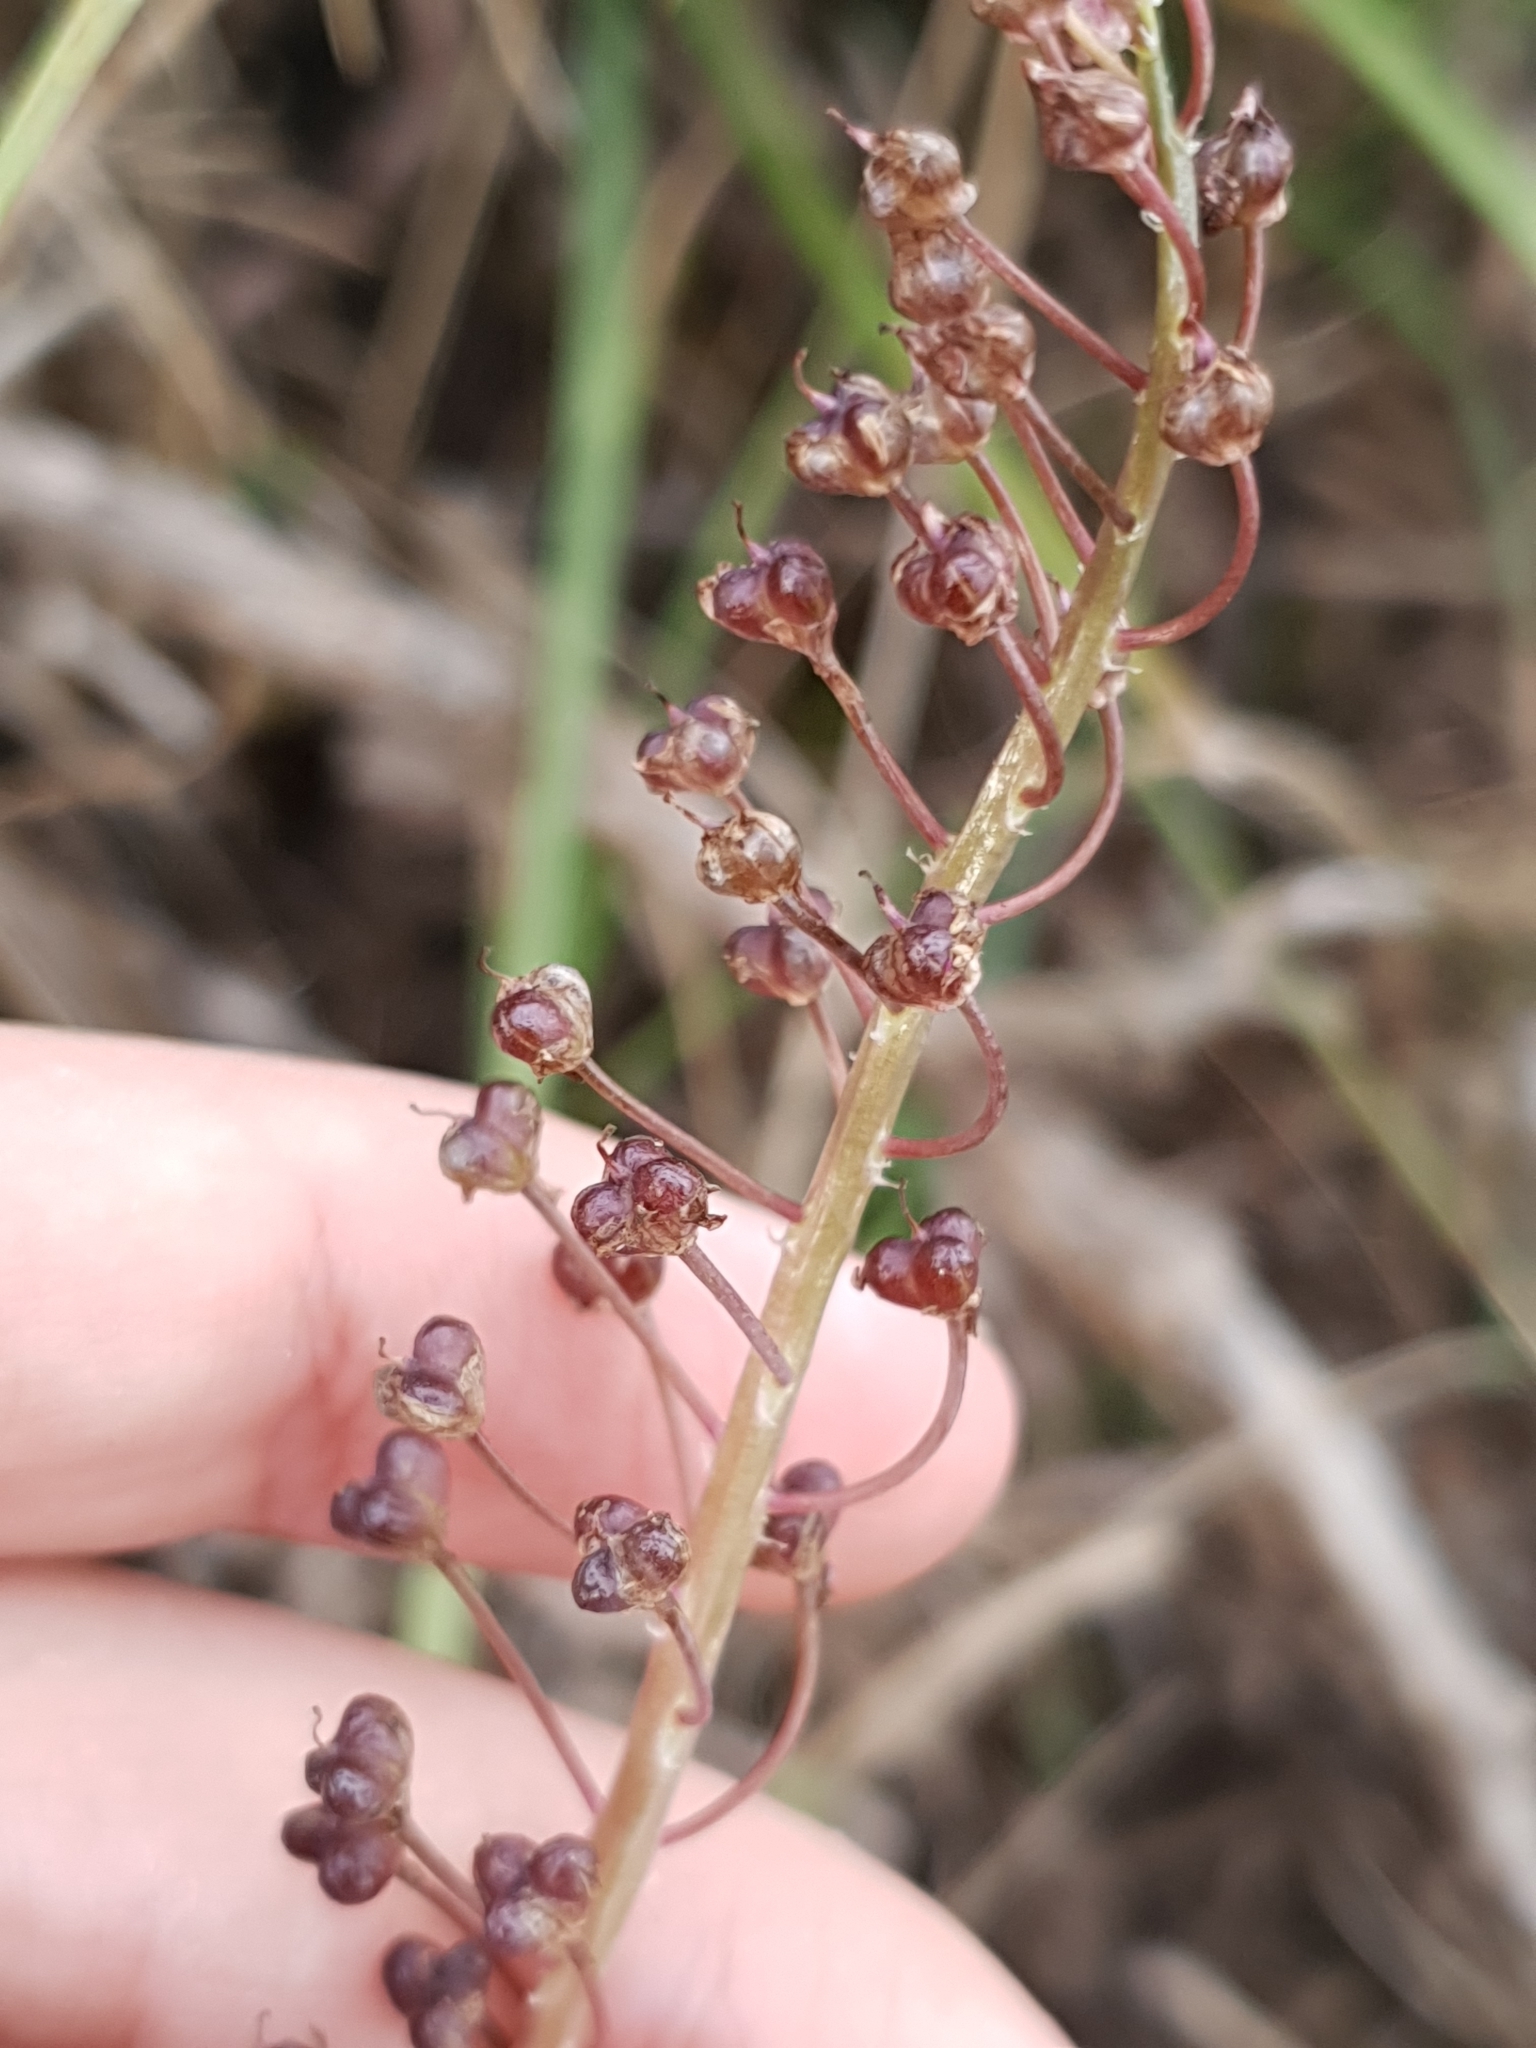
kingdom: Plantae
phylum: Tracheophyta
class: Liliopsida
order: Asparagales
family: Asparagaceae
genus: Barnardia
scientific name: Barnardia numidica
